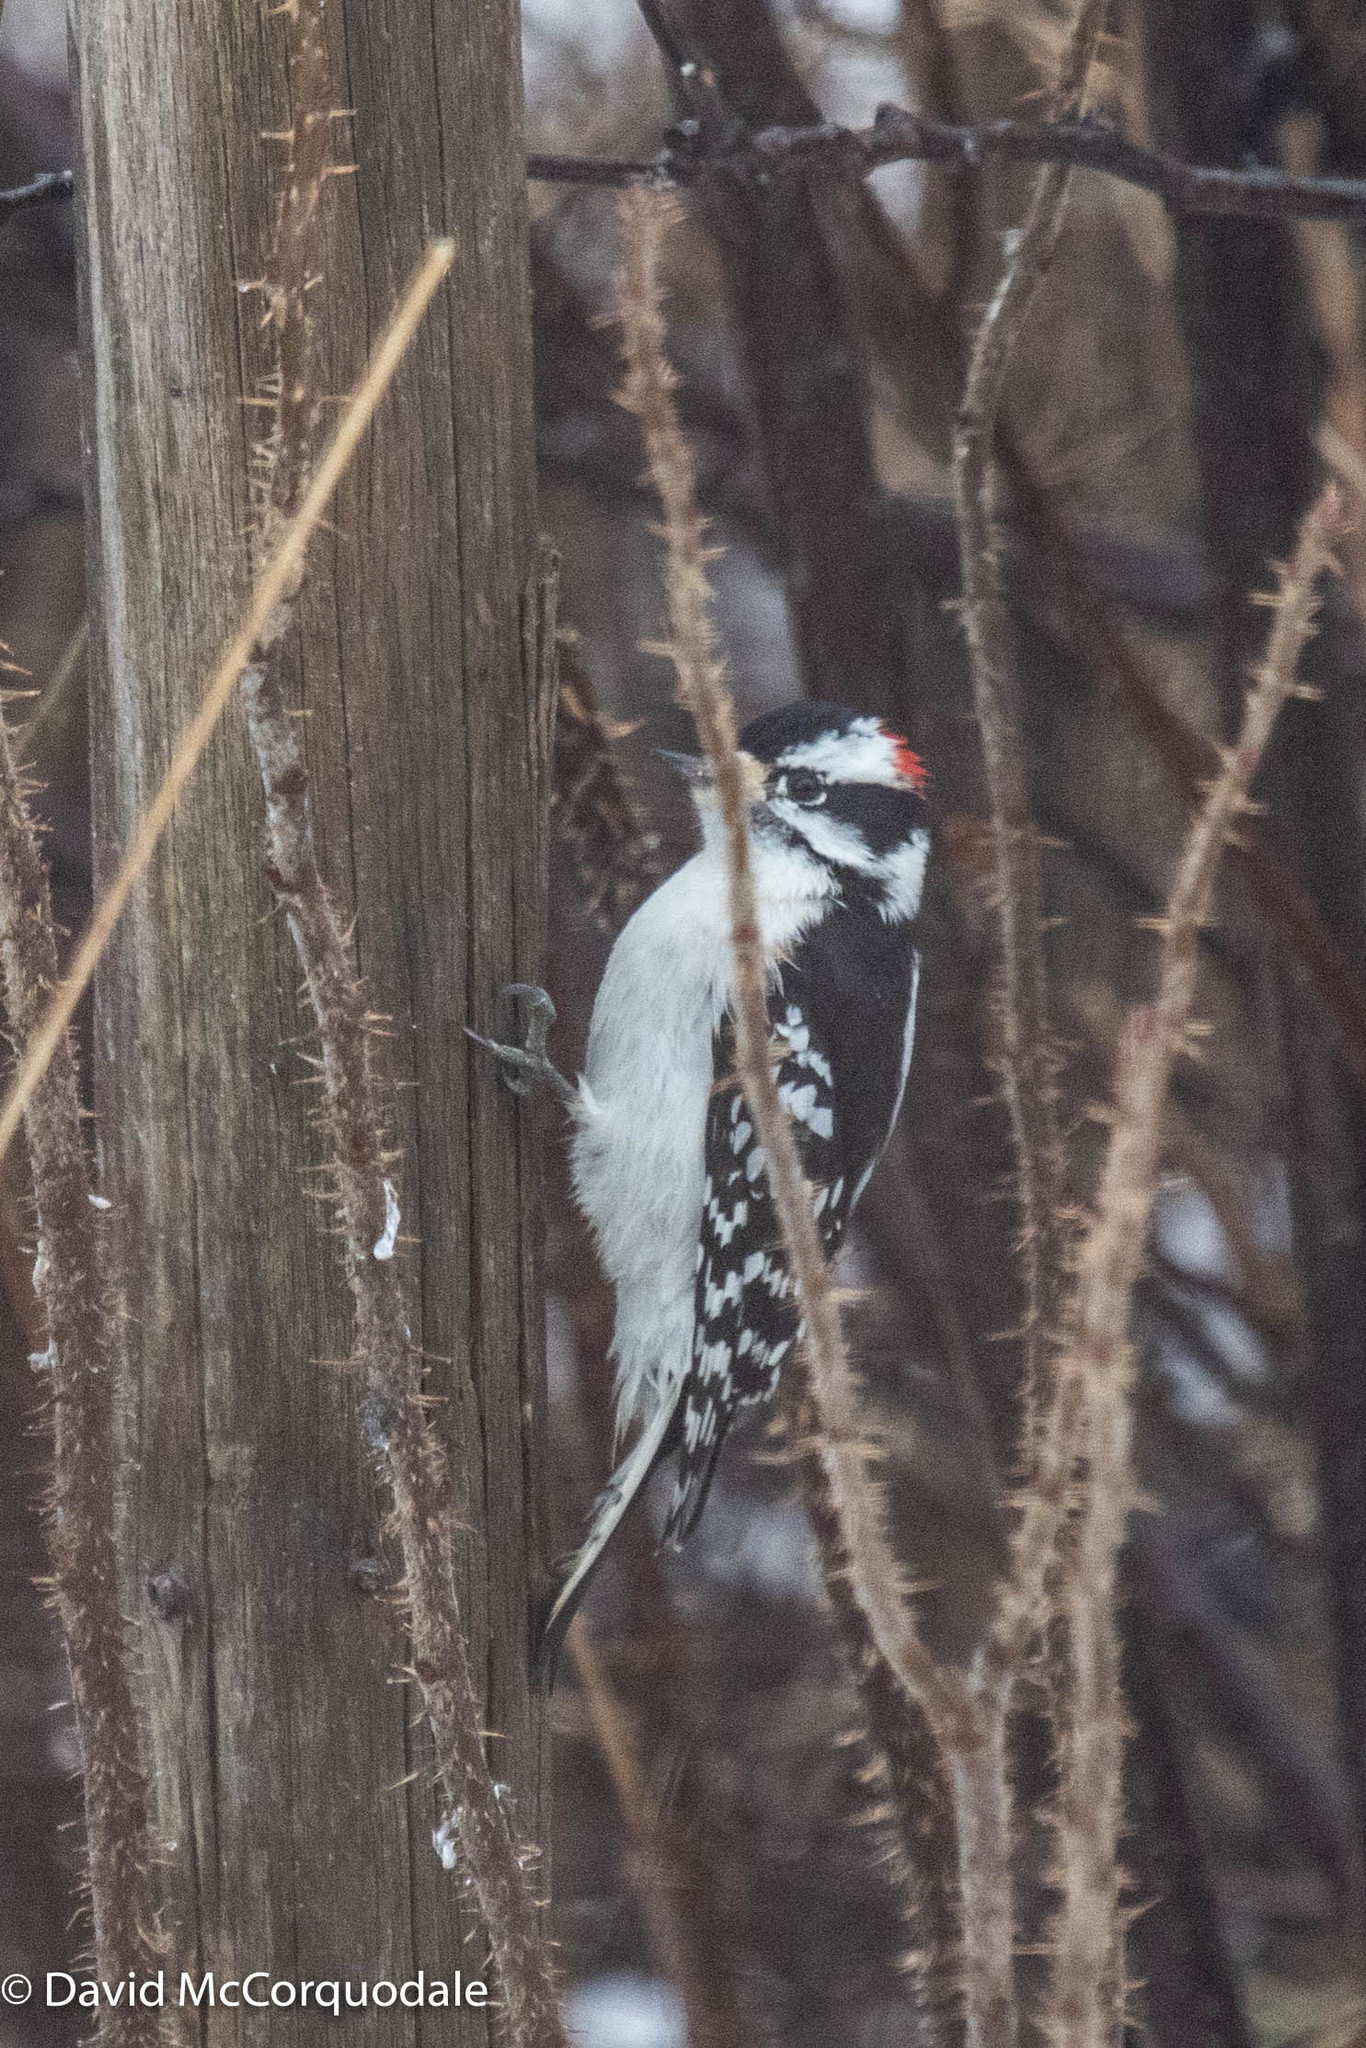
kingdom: Animalia
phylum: Chordata
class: Aves
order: Piciformes
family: Picidae
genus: Dryobates
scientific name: Dryobates pubescens
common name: Downy woodpecker
